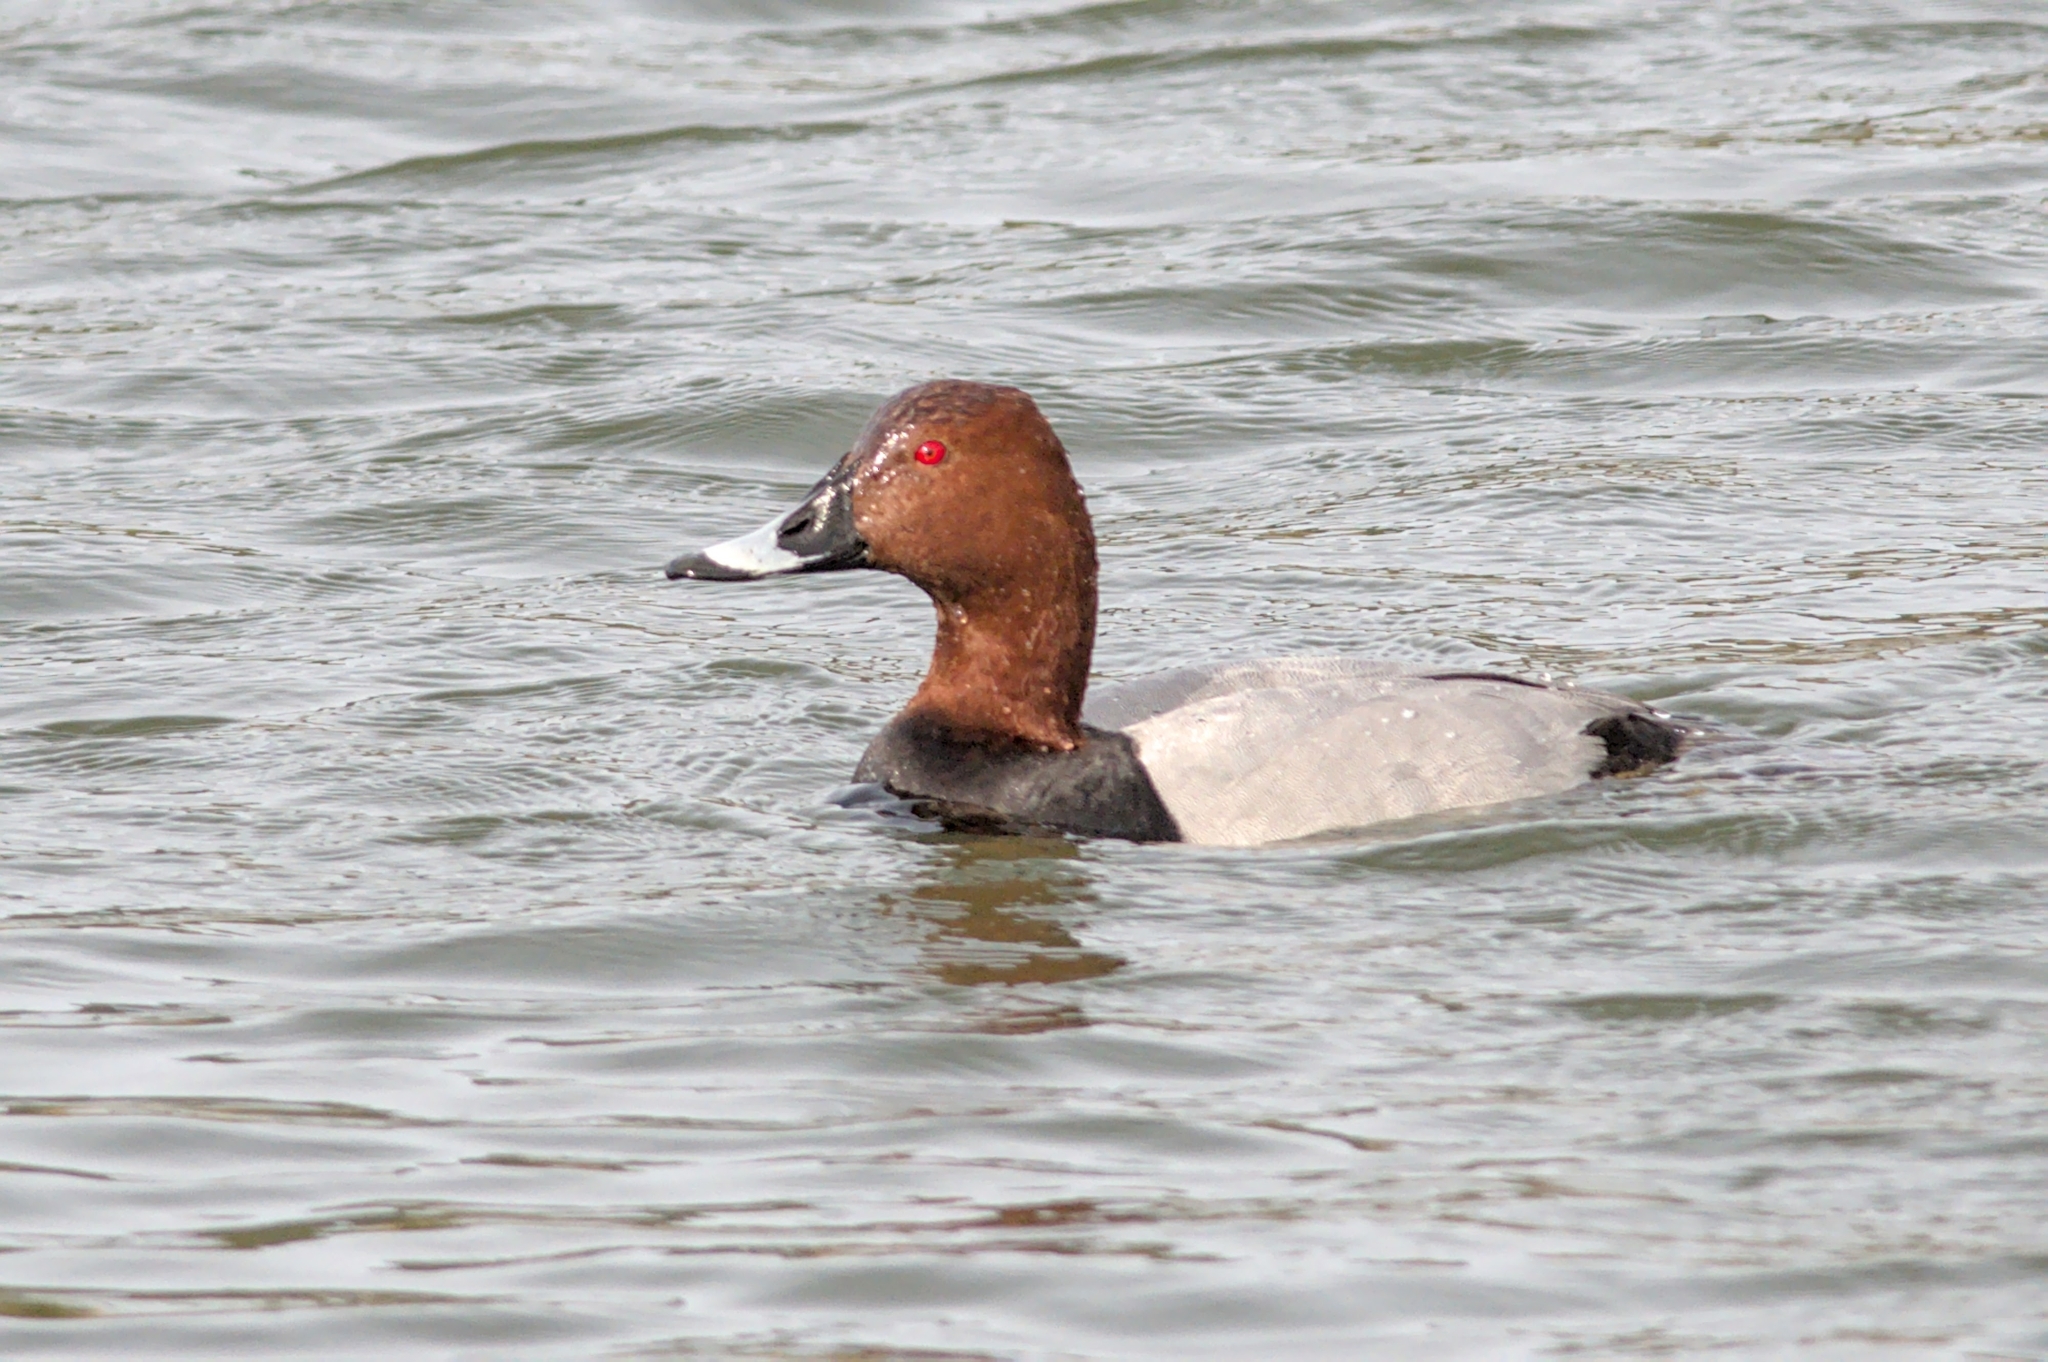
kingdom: Animalia
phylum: Chordata
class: Aves
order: Anseriformes
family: Anatidae
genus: Aythya
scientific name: Aythya ferina
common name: Common pochard
